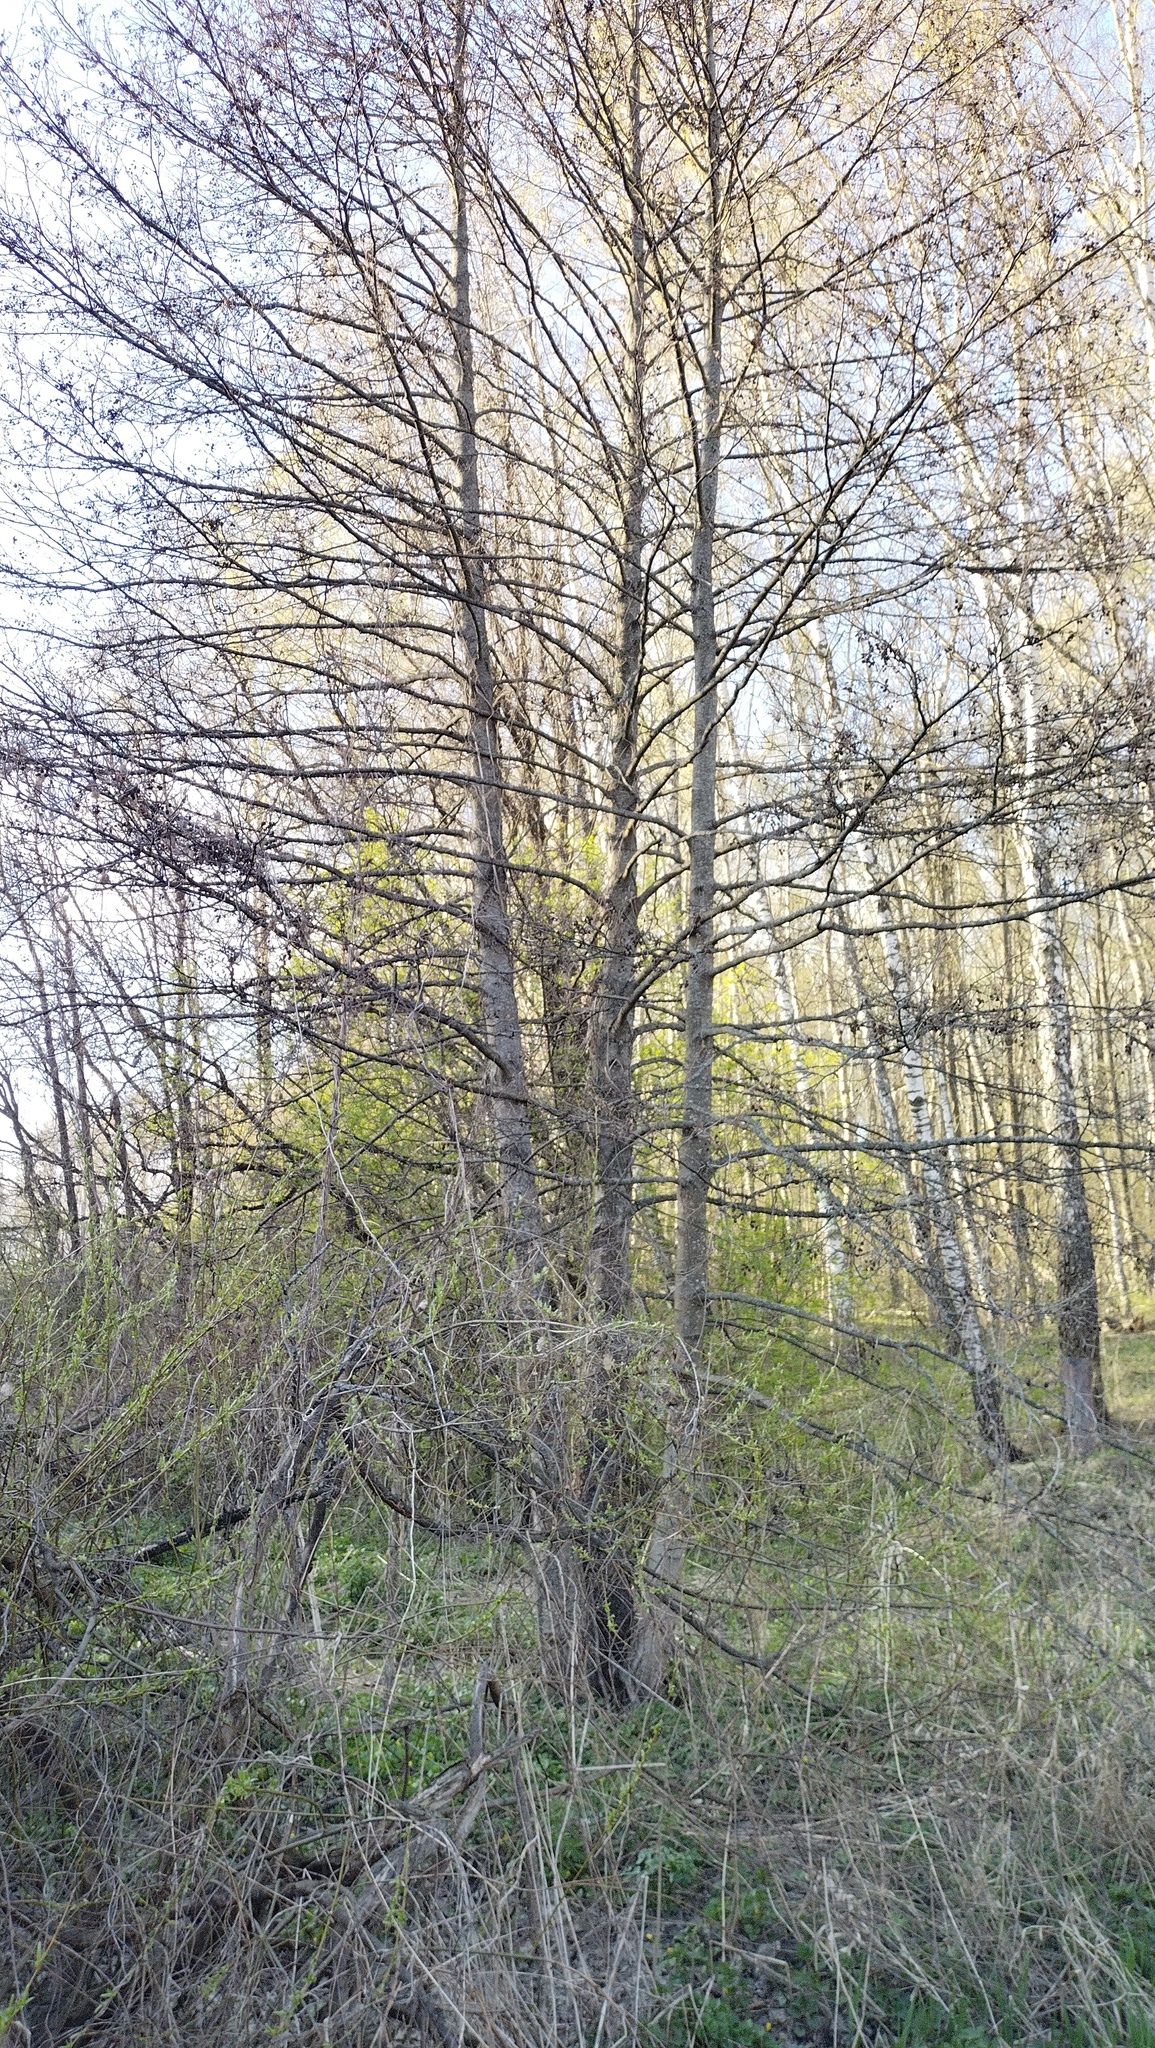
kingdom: Plantae
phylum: Tracheophyta
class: Magnoliopsida
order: Fagales
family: Betulaceae
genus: Alnus
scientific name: Alnus glutinosa
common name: Black alder
